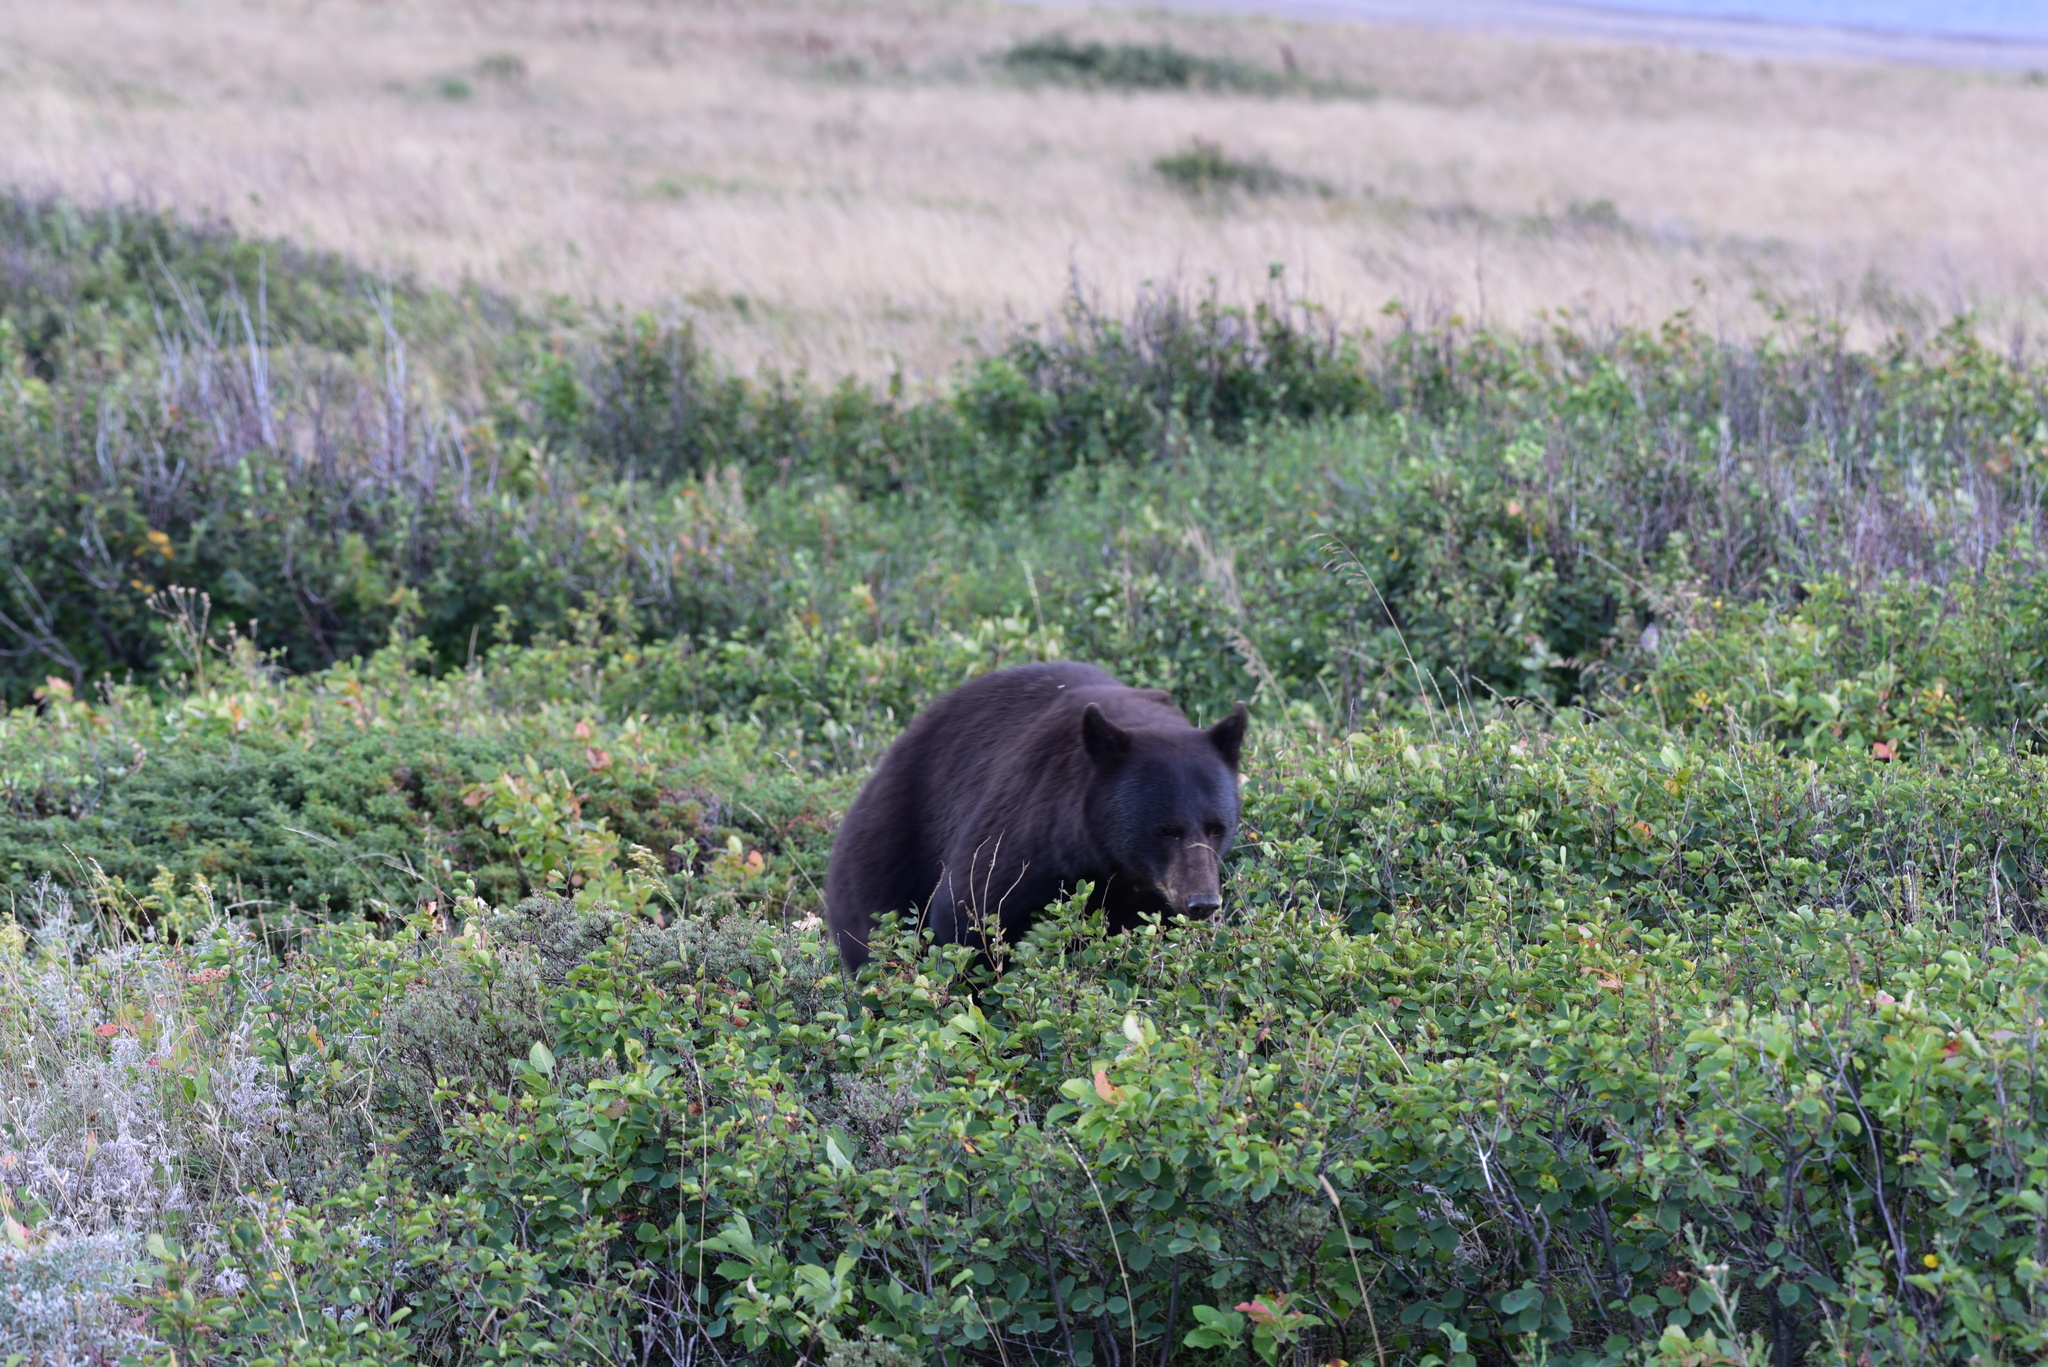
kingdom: Animalia
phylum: Chordata
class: Mammalia
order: Carnivora
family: Ursidae
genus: Ursus
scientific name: Ursus americanus
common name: American black bear
